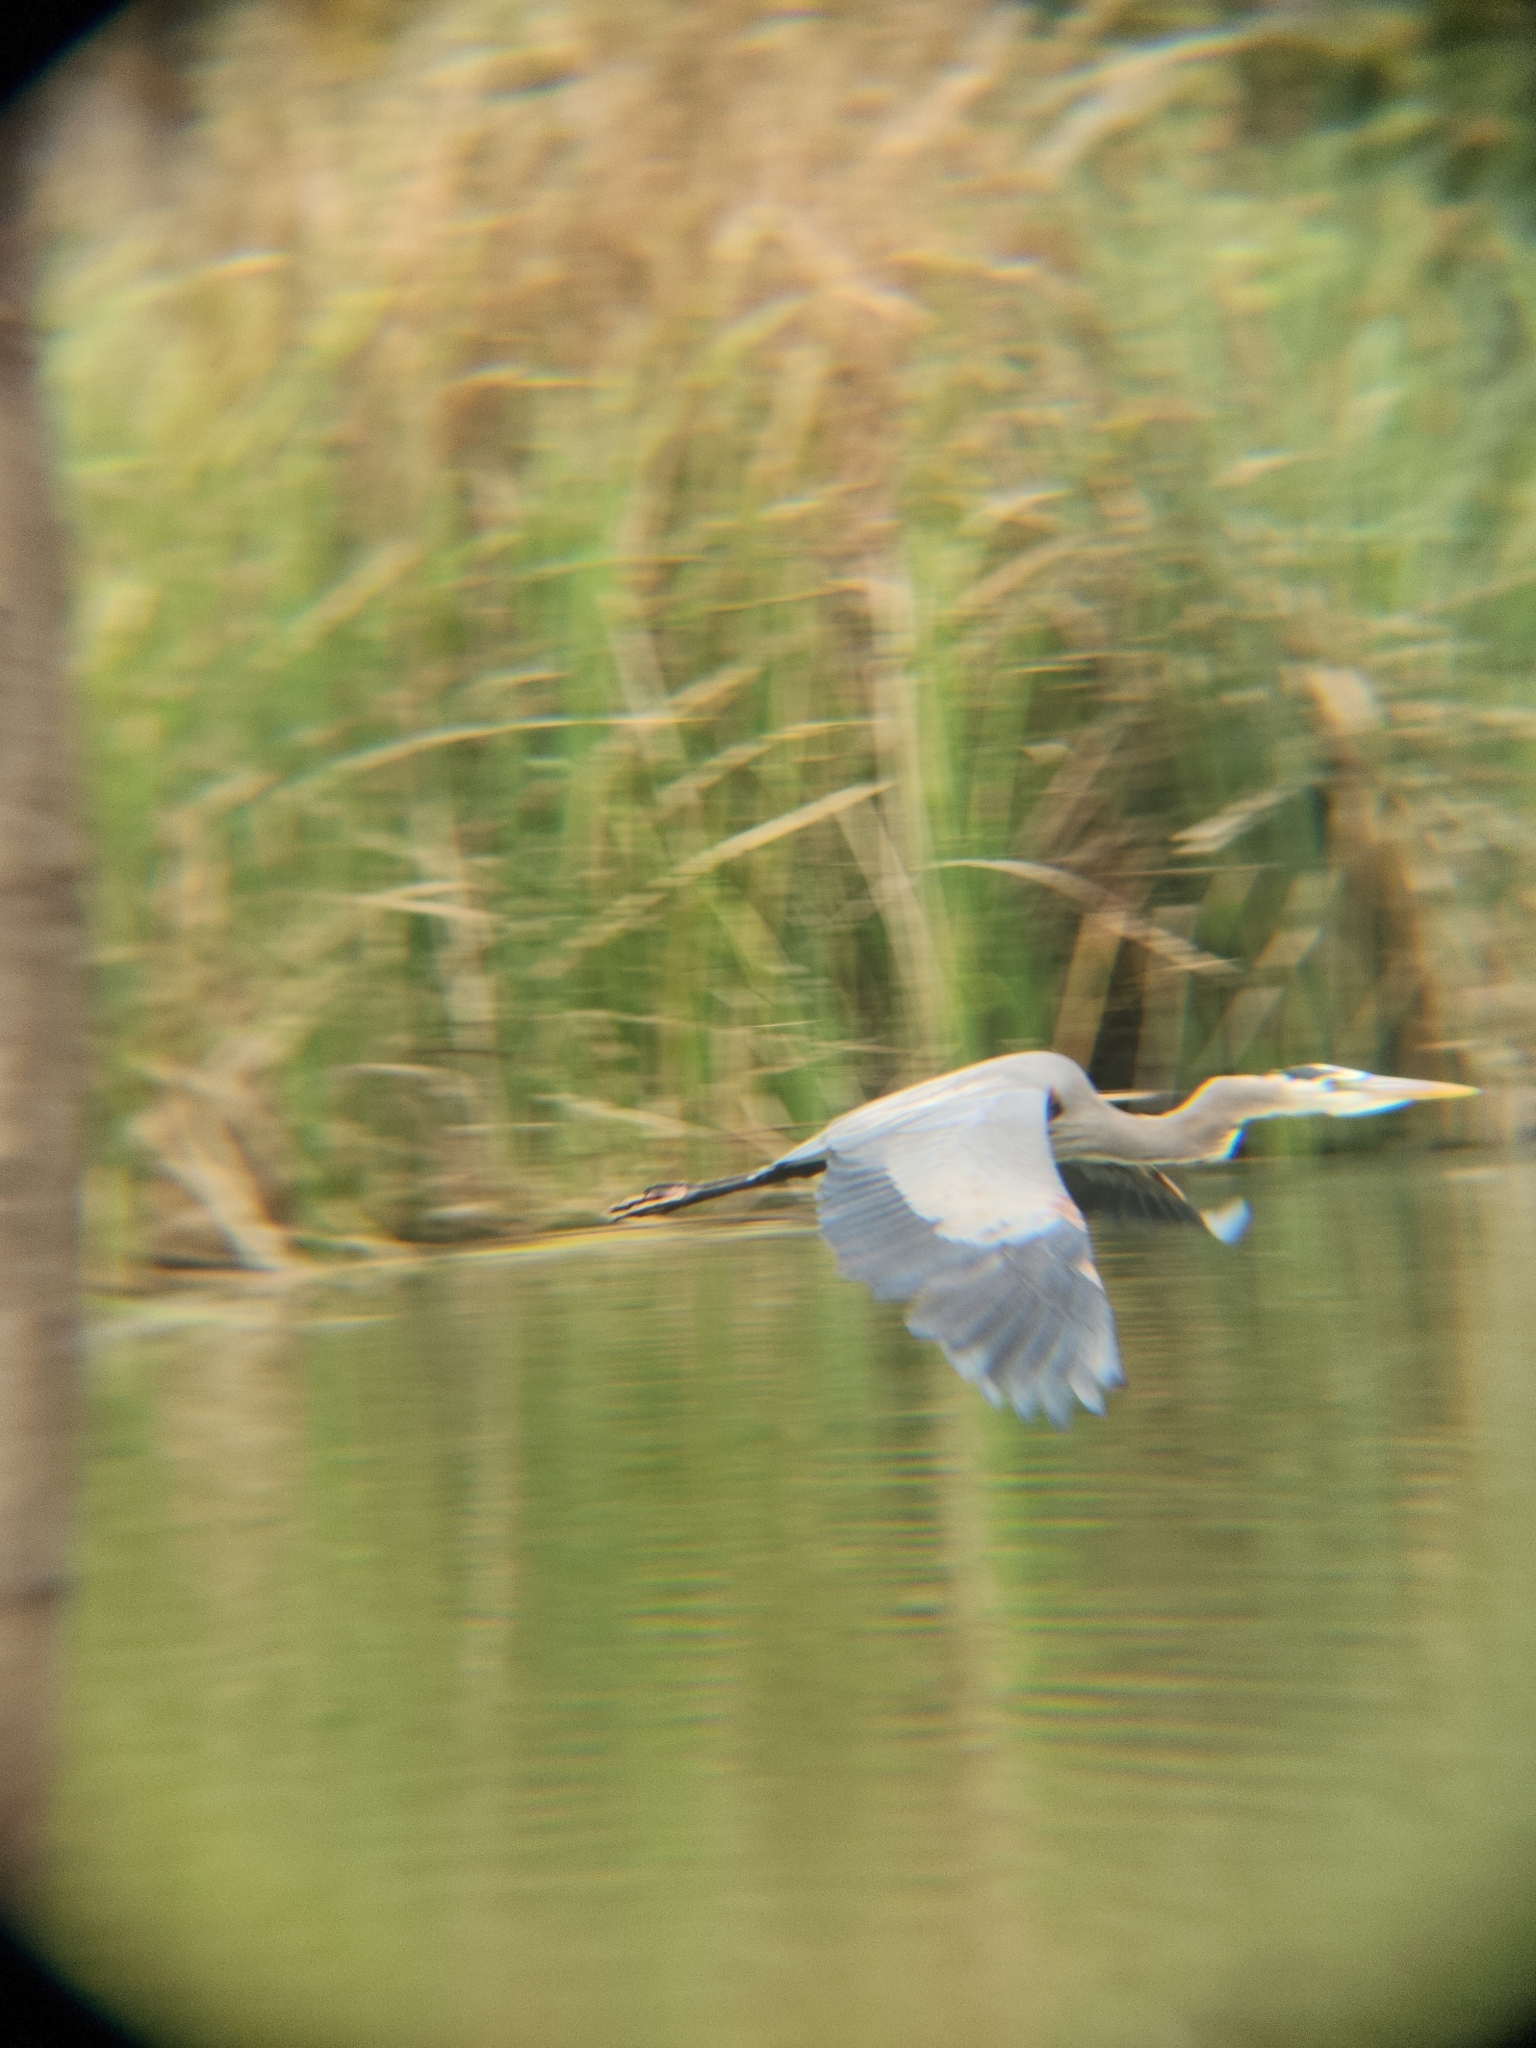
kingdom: Animalia
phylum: Chordata
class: Aves
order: Pelecaniformes
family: Ardeidae
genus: Ardea
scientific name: Ardea herodias
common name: Great blue heron
